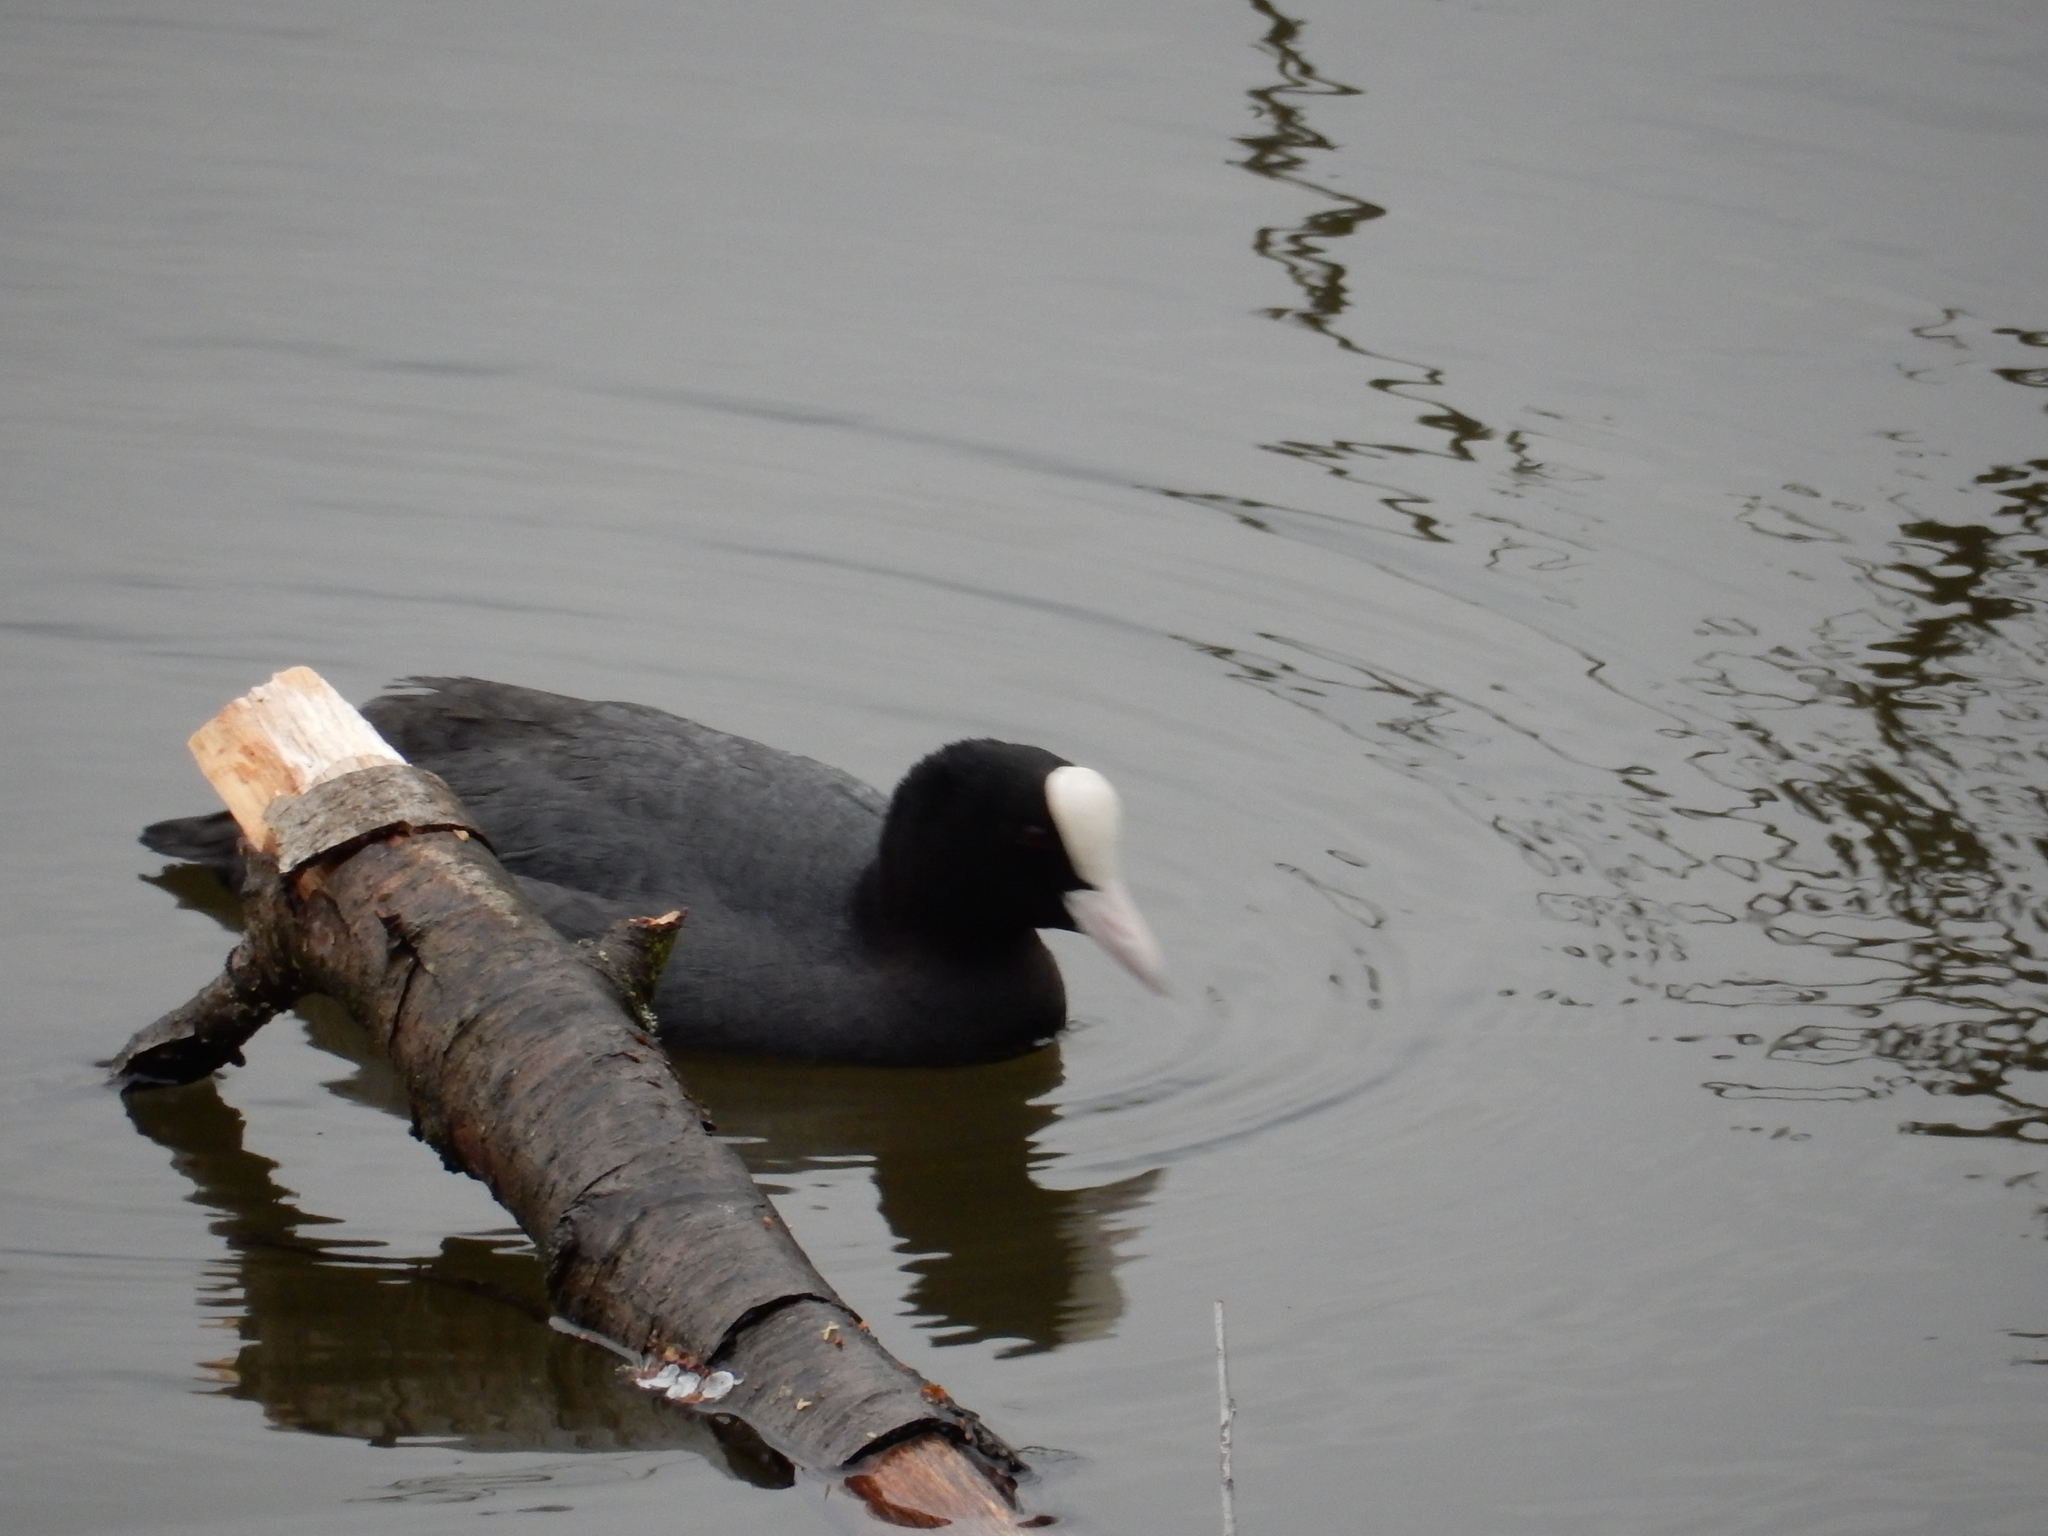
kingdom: Animalia
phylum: Chordata
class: Aves
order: Gruiformes
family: Rallidae
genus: Fulica
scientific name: Fulica atra
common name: Eurasian coot
